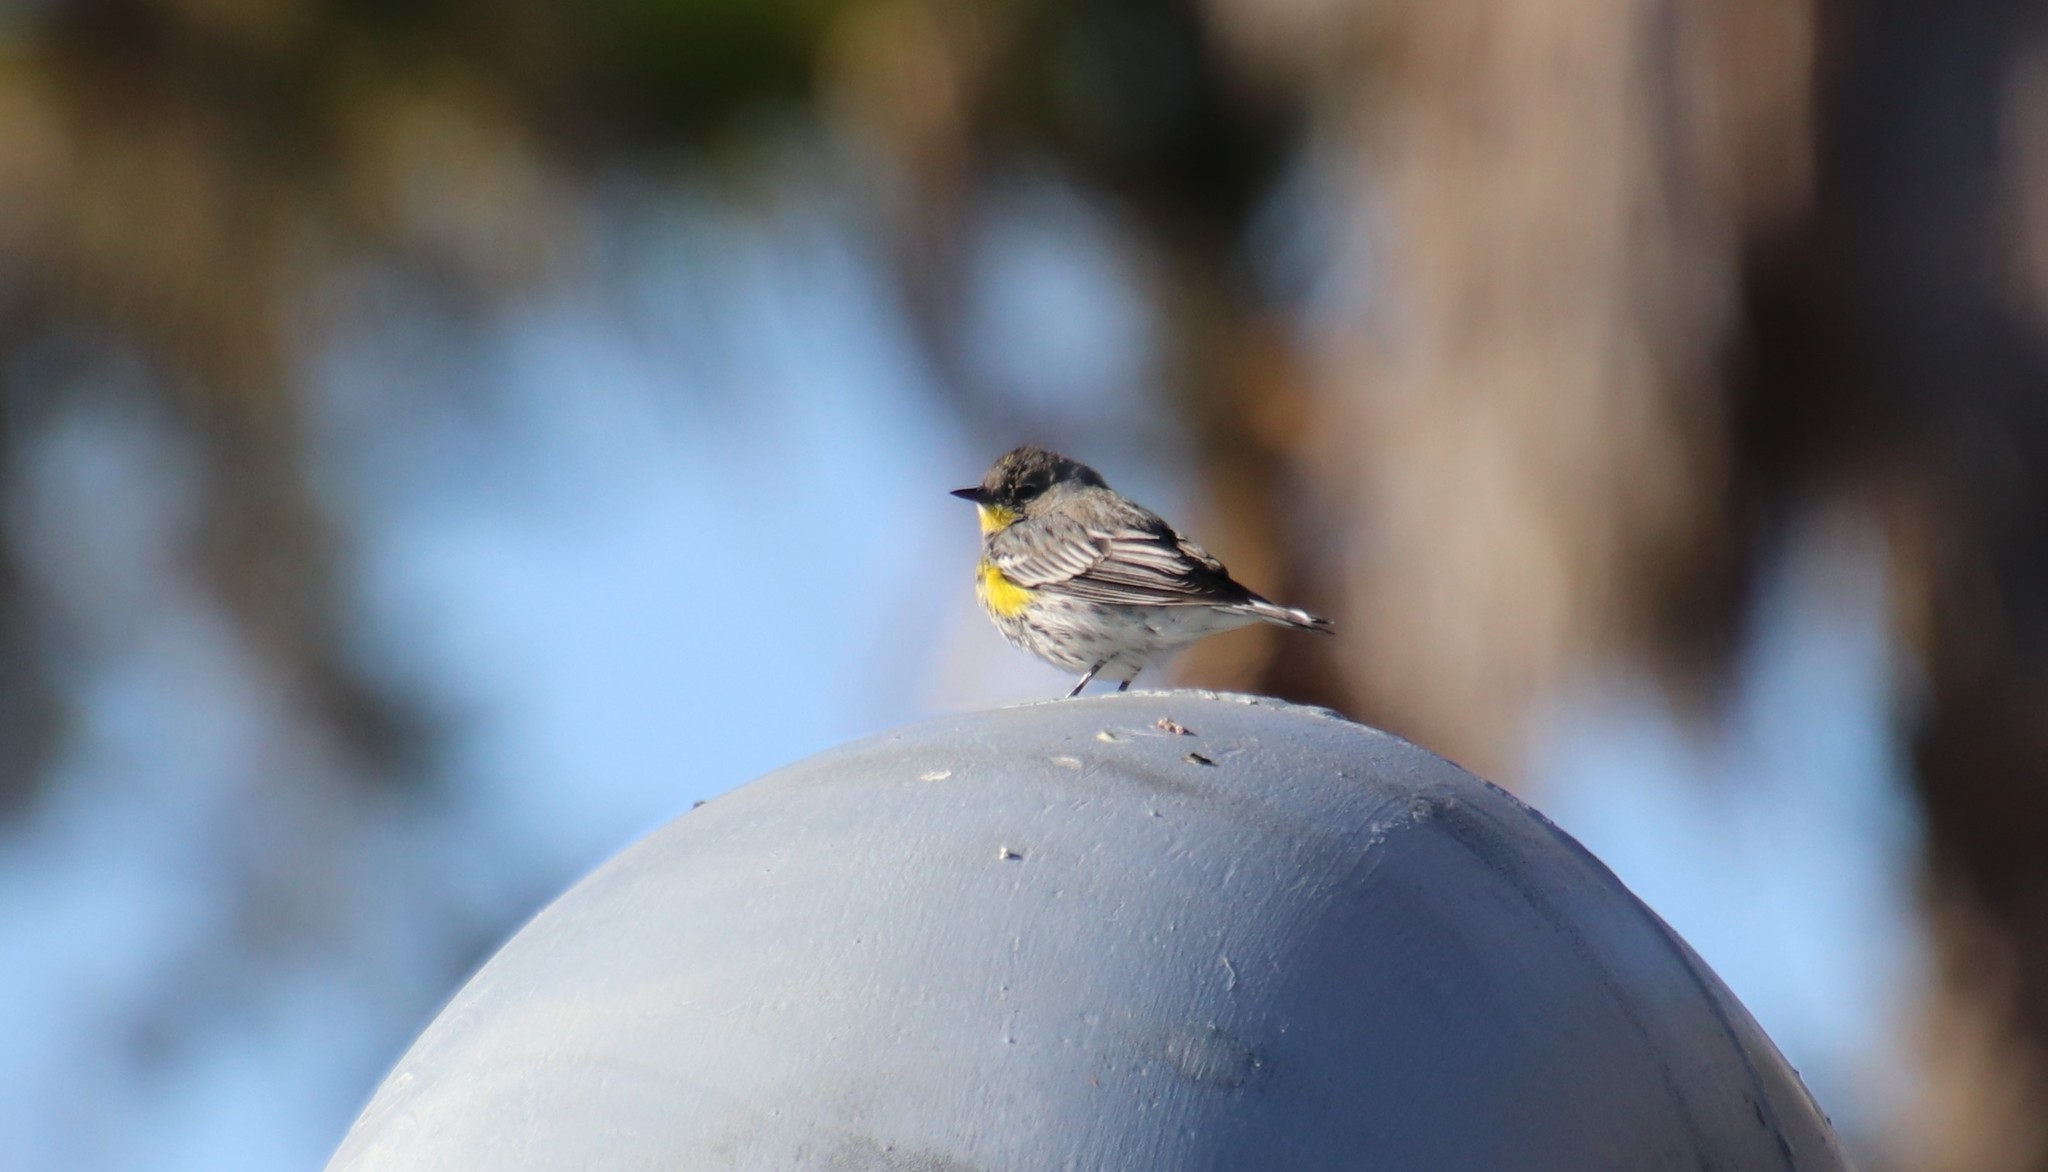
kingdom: Animalia
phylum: Chordata
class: Aves
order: Passeriformes
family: Parulidae
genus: Setophaga
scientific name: Setophaga auduboni
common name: Audubon's warbler
